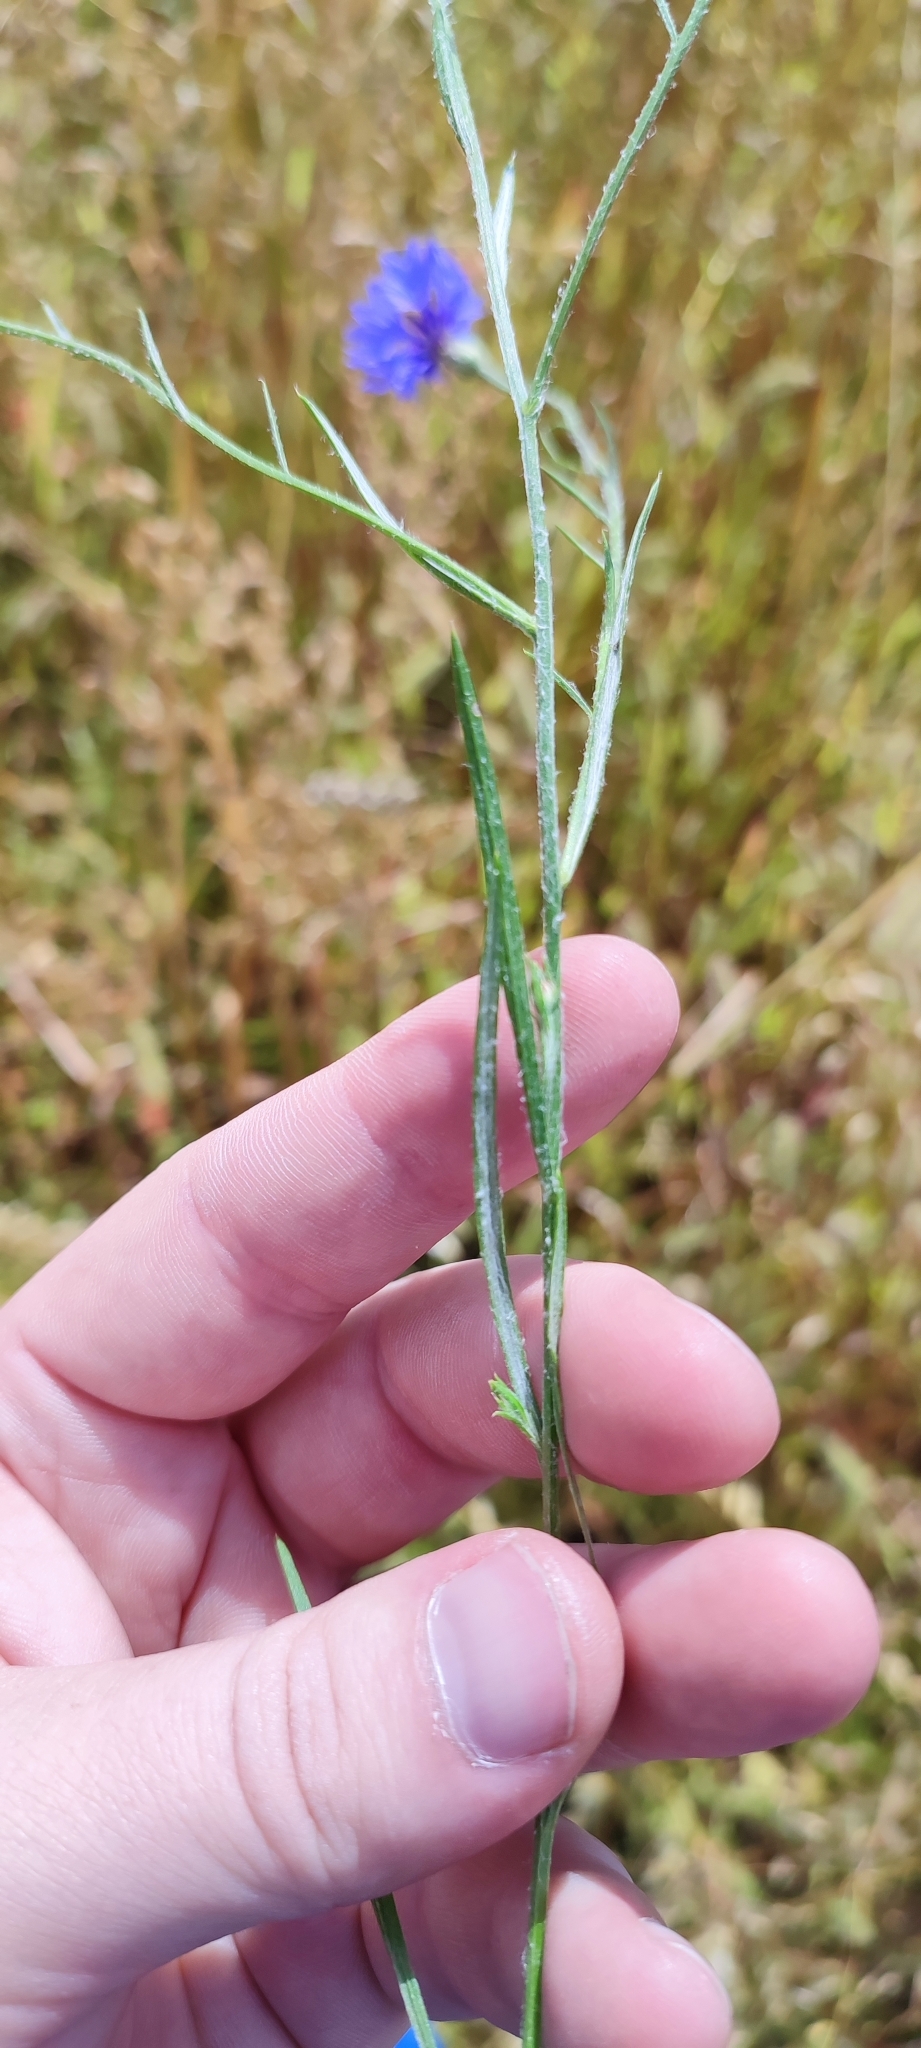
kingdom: Plantae
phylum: Tracheophyta
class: Magnoliopsida
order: Asterales
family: Asteraceae
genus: Centaurea
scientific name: Centaurea cyanus
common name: Cornflower
